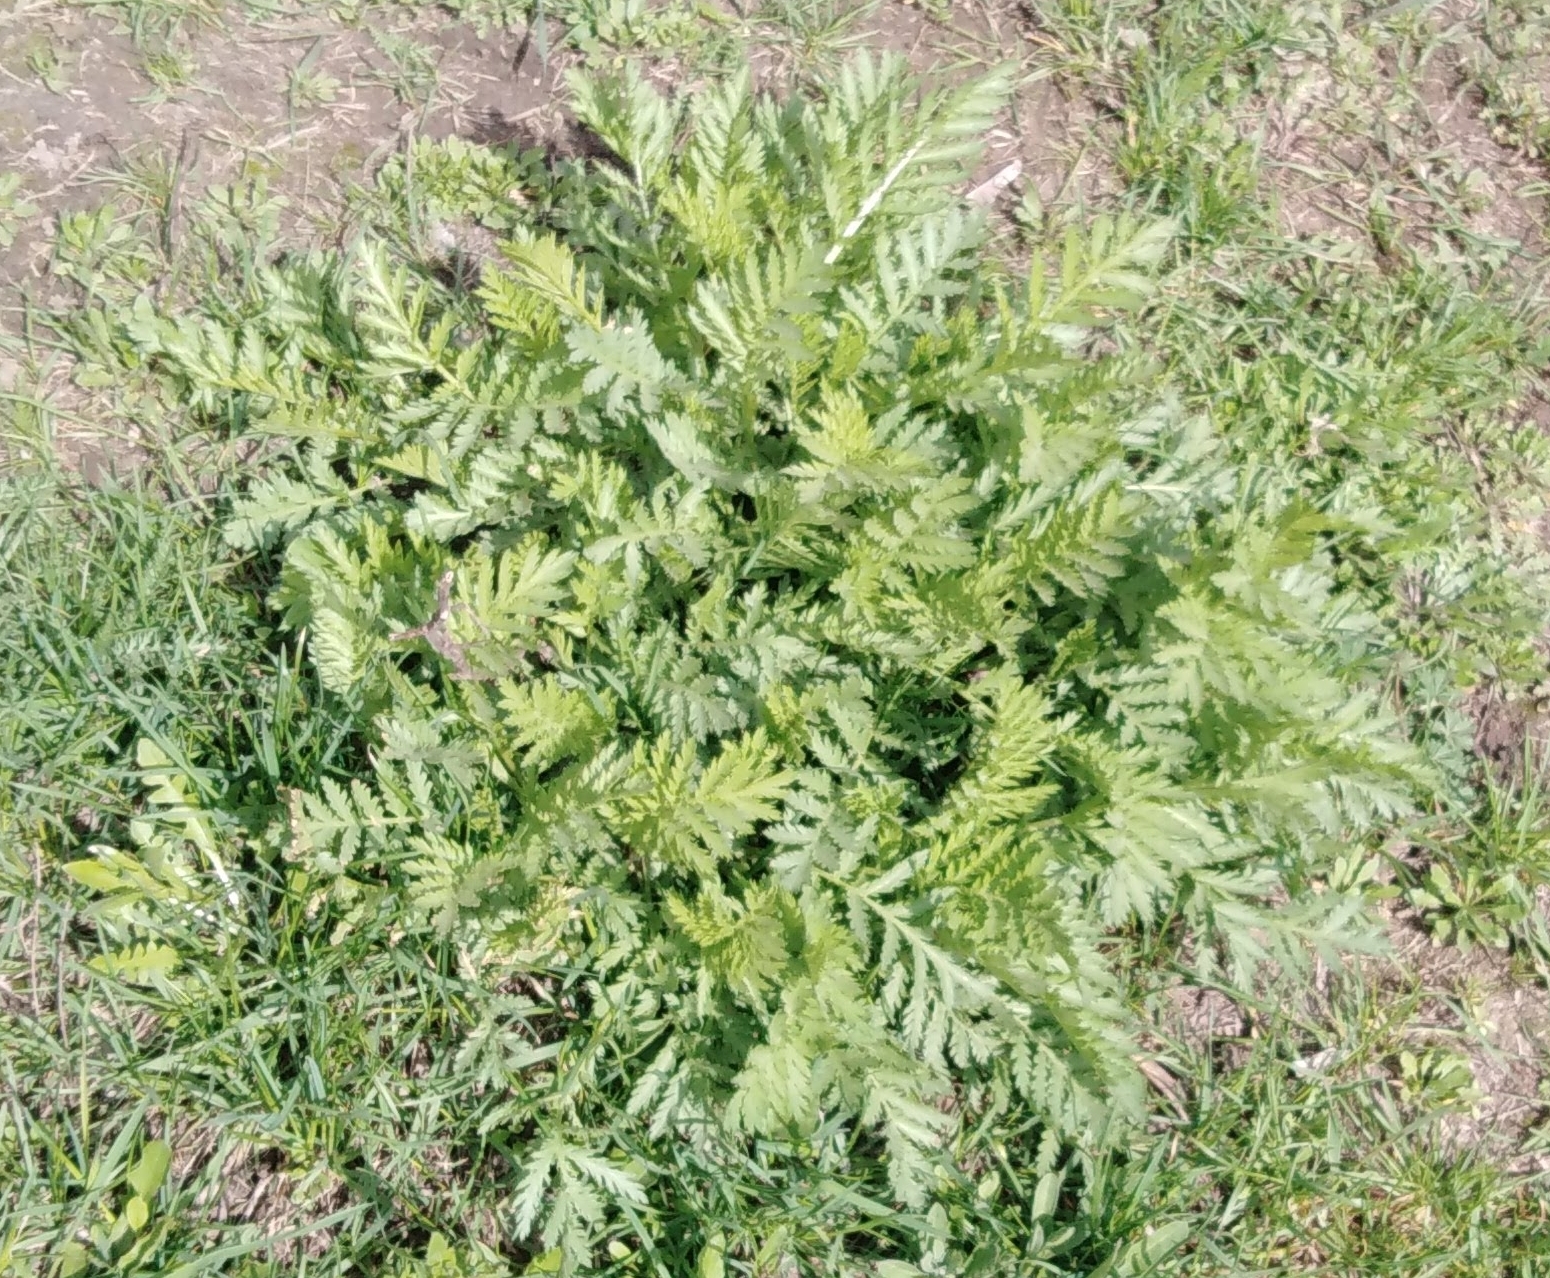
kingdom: Plantae
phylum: Tracheophyta
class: Magnoliopsida
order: Asterales
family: Asteraceae
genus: Tanacetum
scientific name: Tanacetum vulgare
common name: Common tansy
